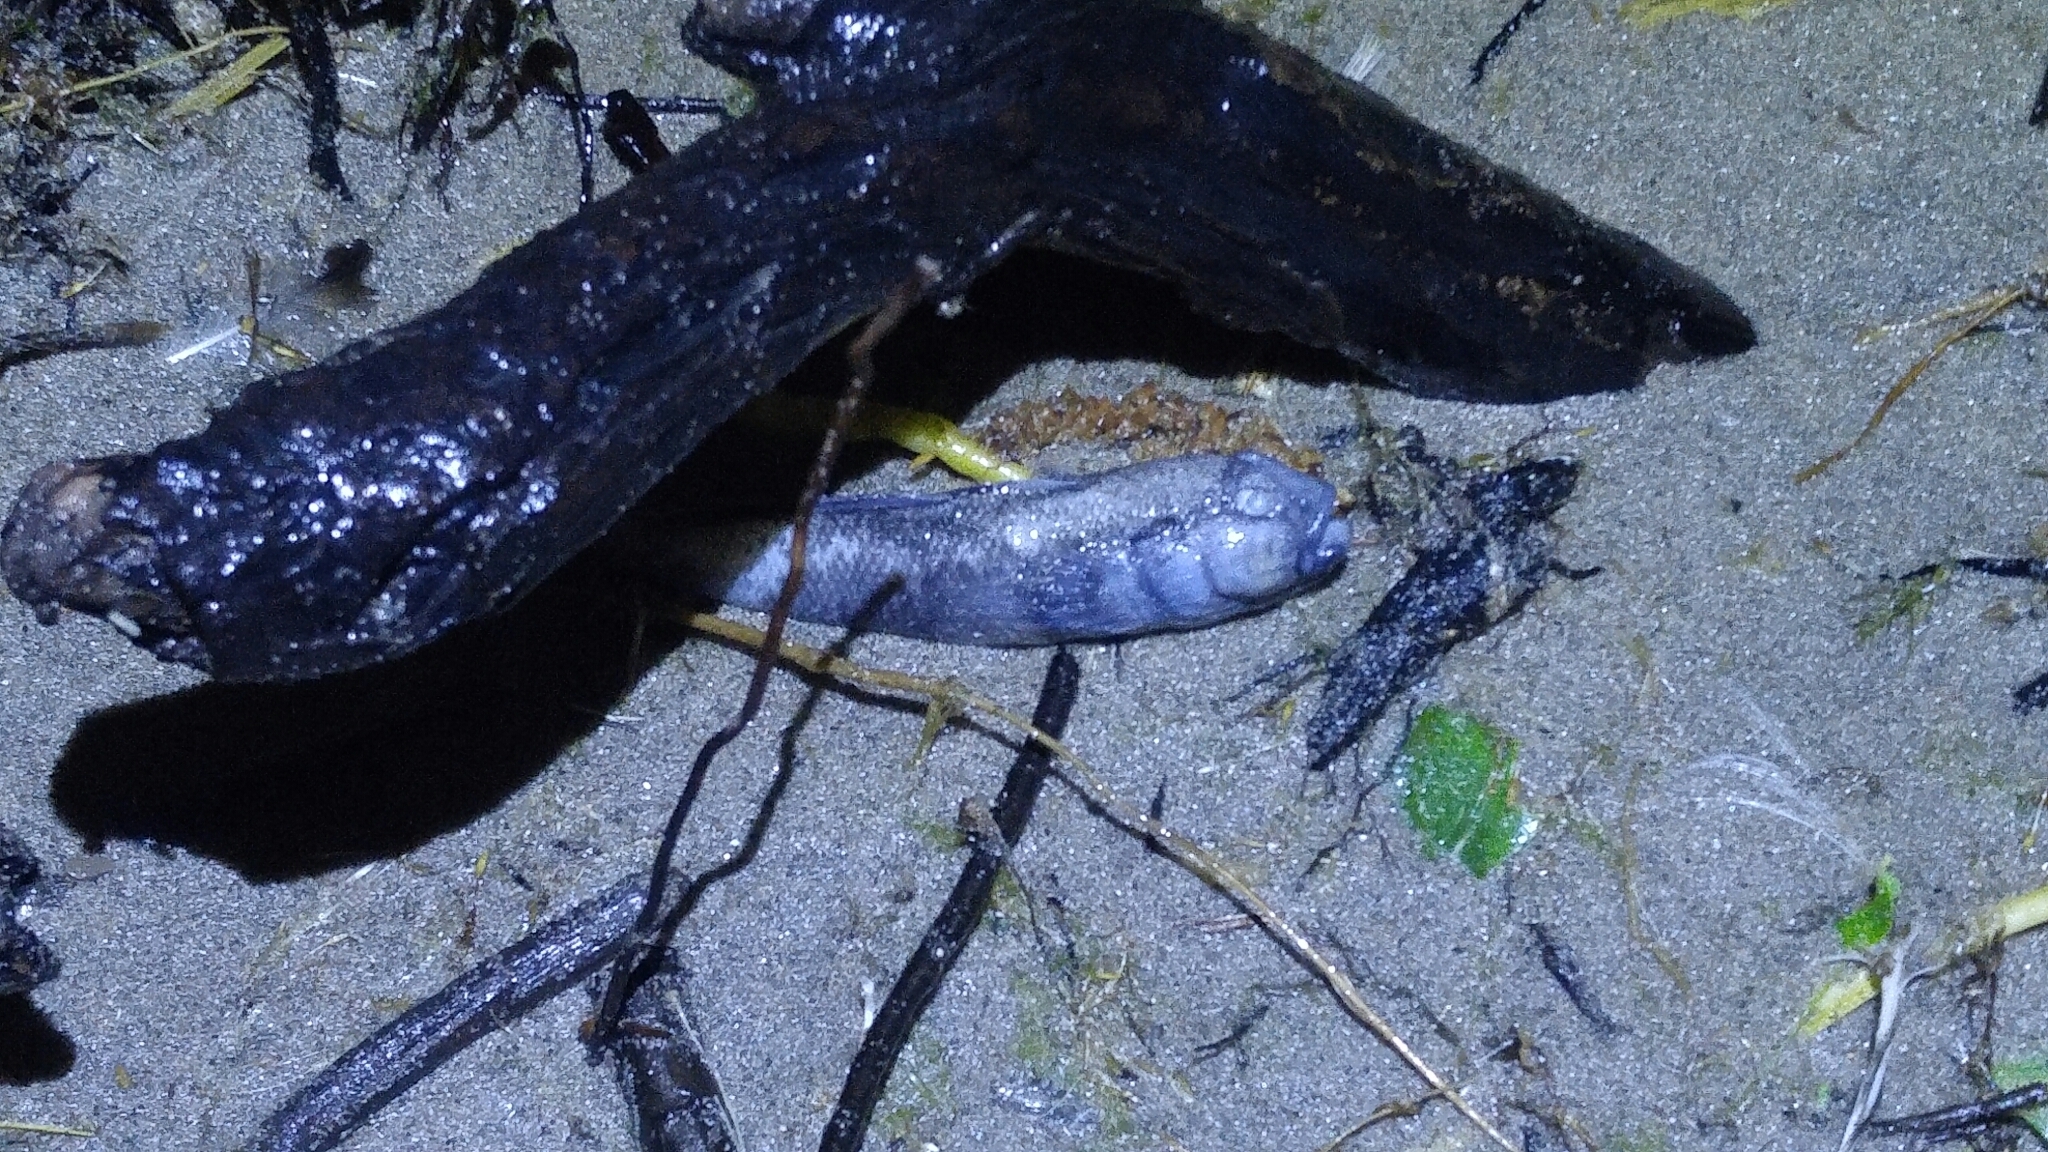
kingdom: Animalia
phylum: Chordata
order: Perciformes
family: Gobiidae
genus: Neogobius
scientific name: Neogobius melanostomus
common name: Round goby
